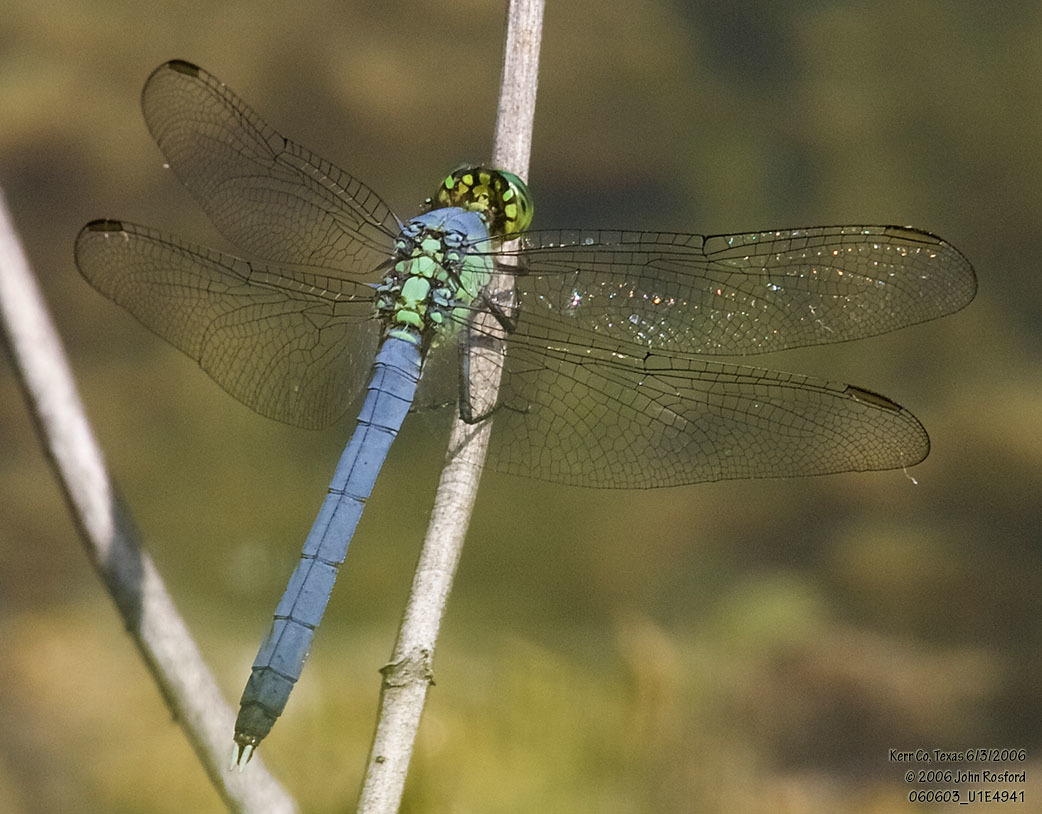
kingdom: Animalia
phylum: Arthropoda
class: Insecta
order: Odonata
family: Libellulidae
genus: Erythemis
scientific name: Erythemis simplicicollis
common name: Eastern pondhawk
